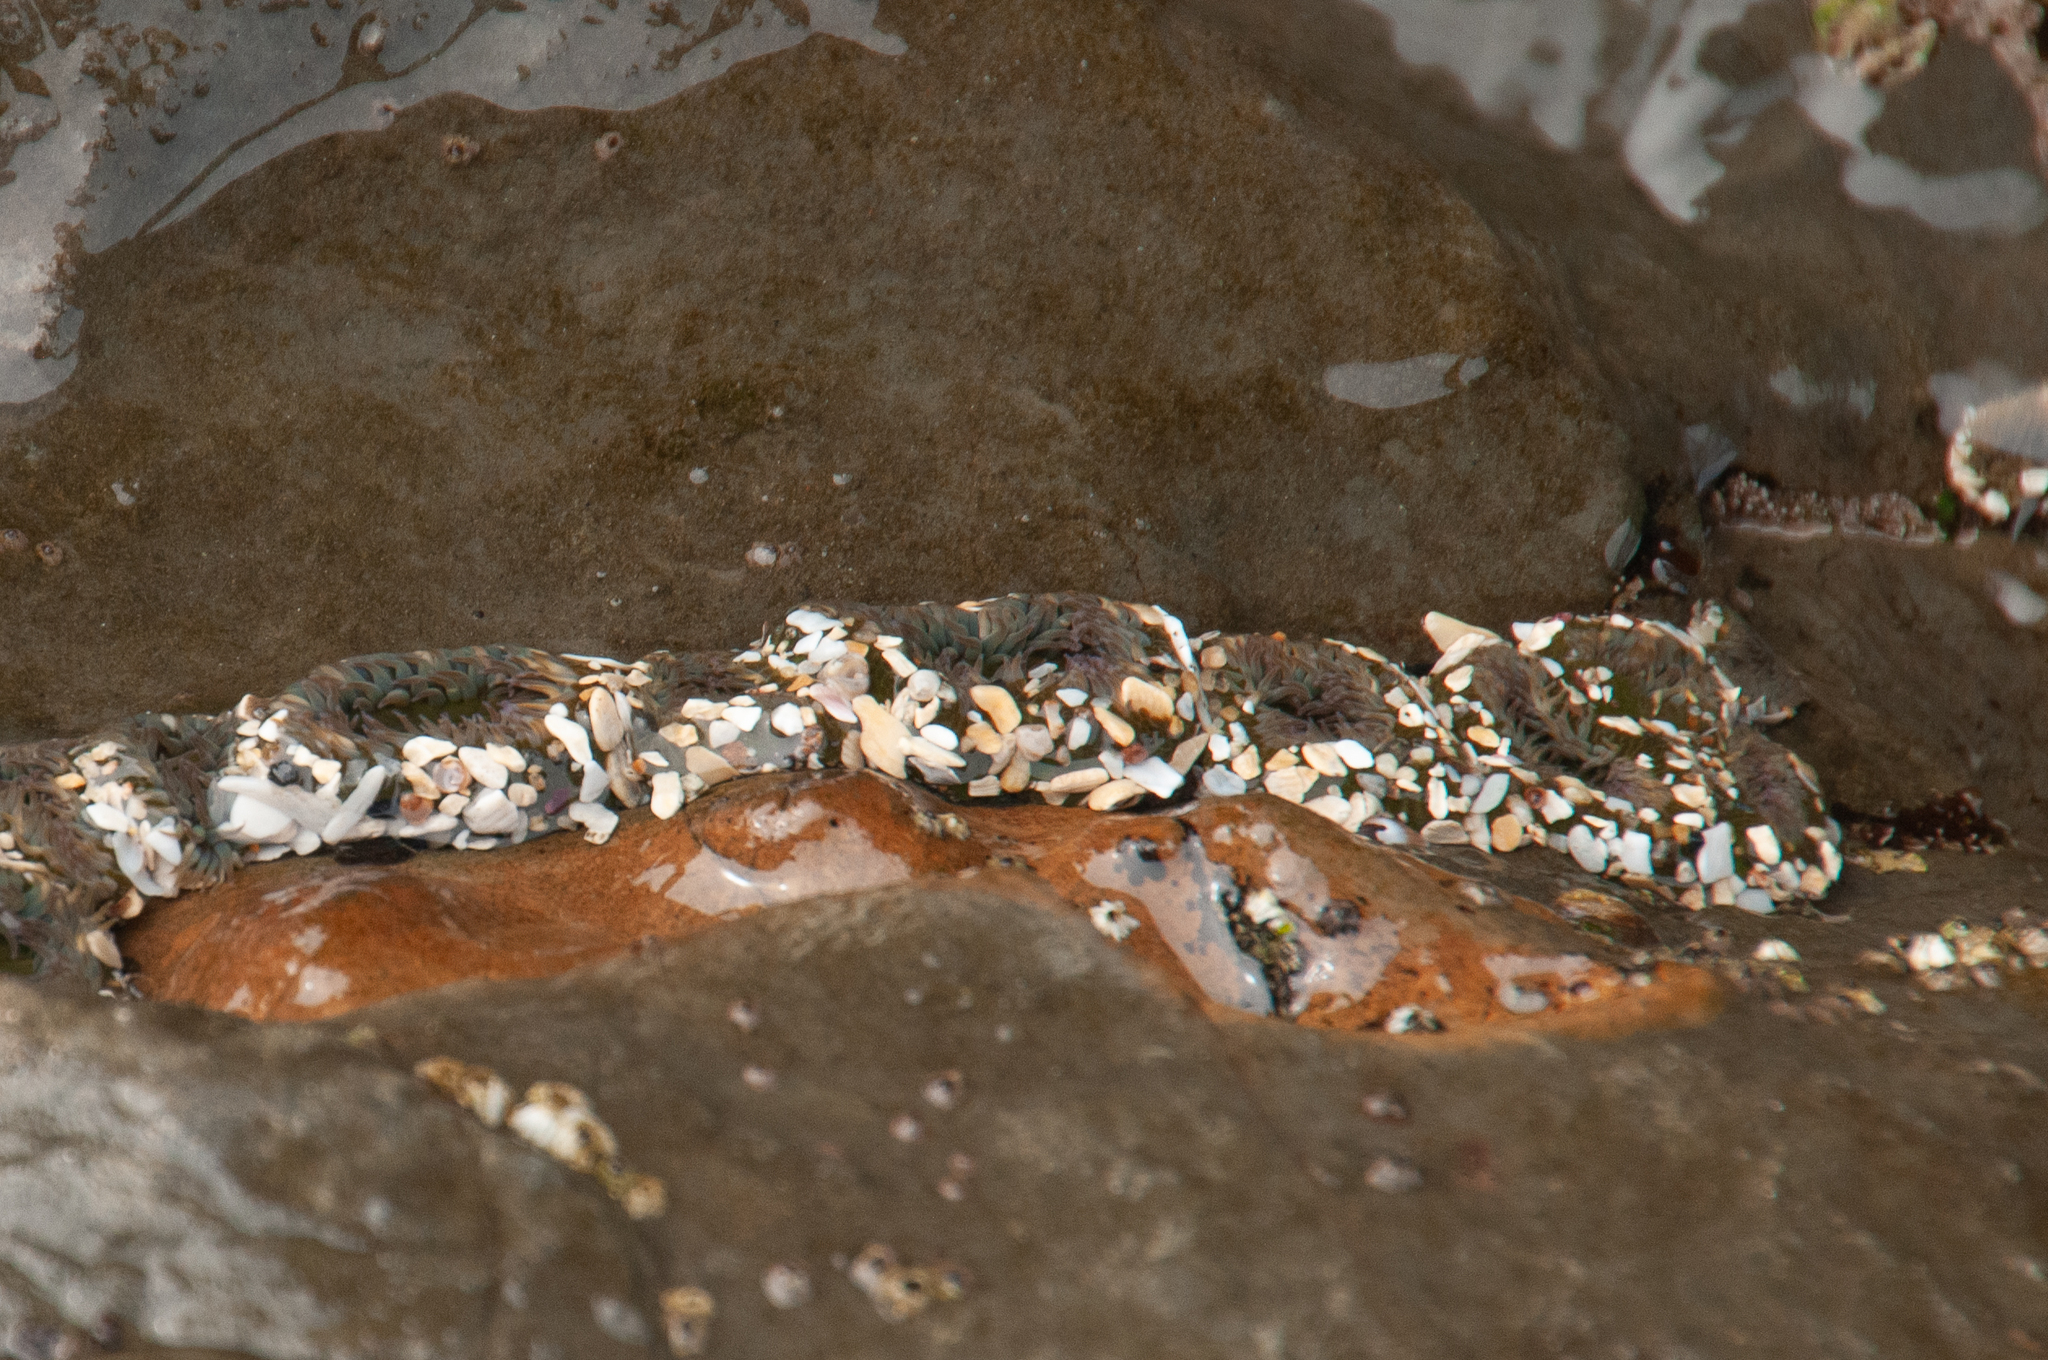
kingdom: Animalia
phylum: Cnidaria
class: Anthozoa
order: Actiniaria
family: Actiniidae
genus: Anthopleura
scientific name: Anthopleura elegantissima
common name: Clonal anemone
